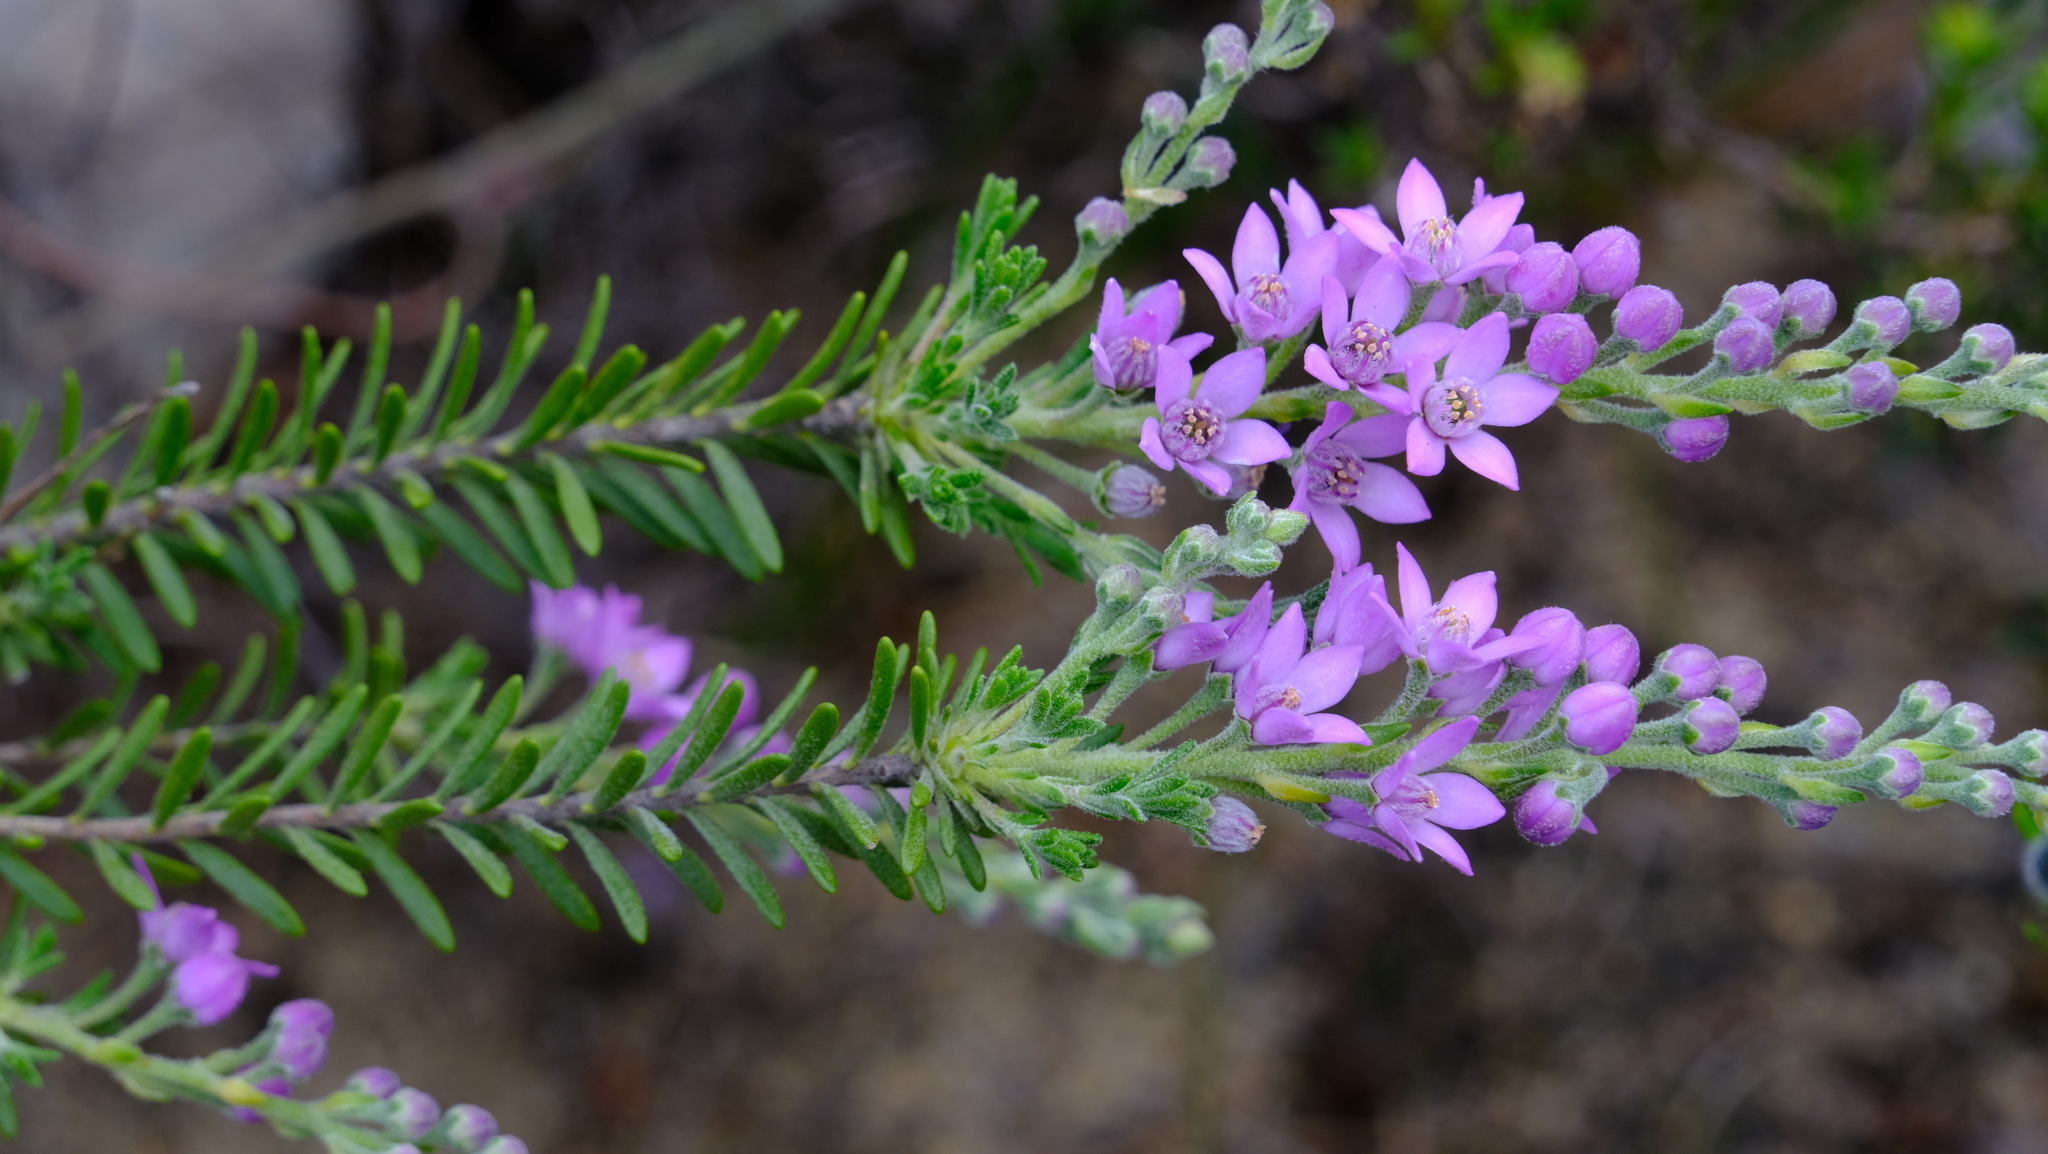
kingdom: Plantae
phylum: Tracheophyta
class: Magnoliopsida
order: Sapindales
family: Rutaceae
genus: Philotheca
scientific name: Philotheca spicata
